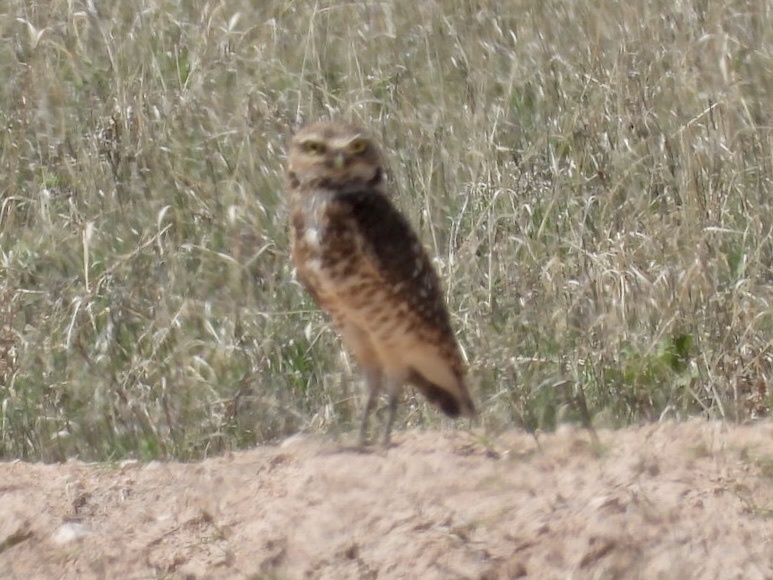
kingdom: Animalia
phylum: Chordata
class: Aves
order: Strigiformes
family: Strigidae
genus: Athene
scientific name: Athene cunicularia
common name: Burrowing owl
